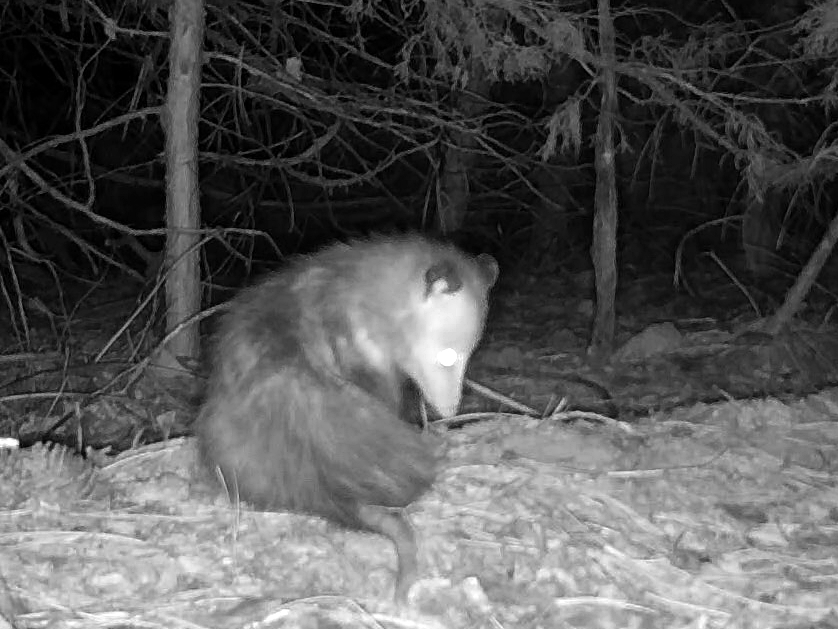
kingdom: Animalia
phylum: Chordata
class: Mammalia
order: Didelphimorphia
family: Didelphidae
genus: Didelphis
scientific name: Didelphis virginiana
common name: Virginia opossum
